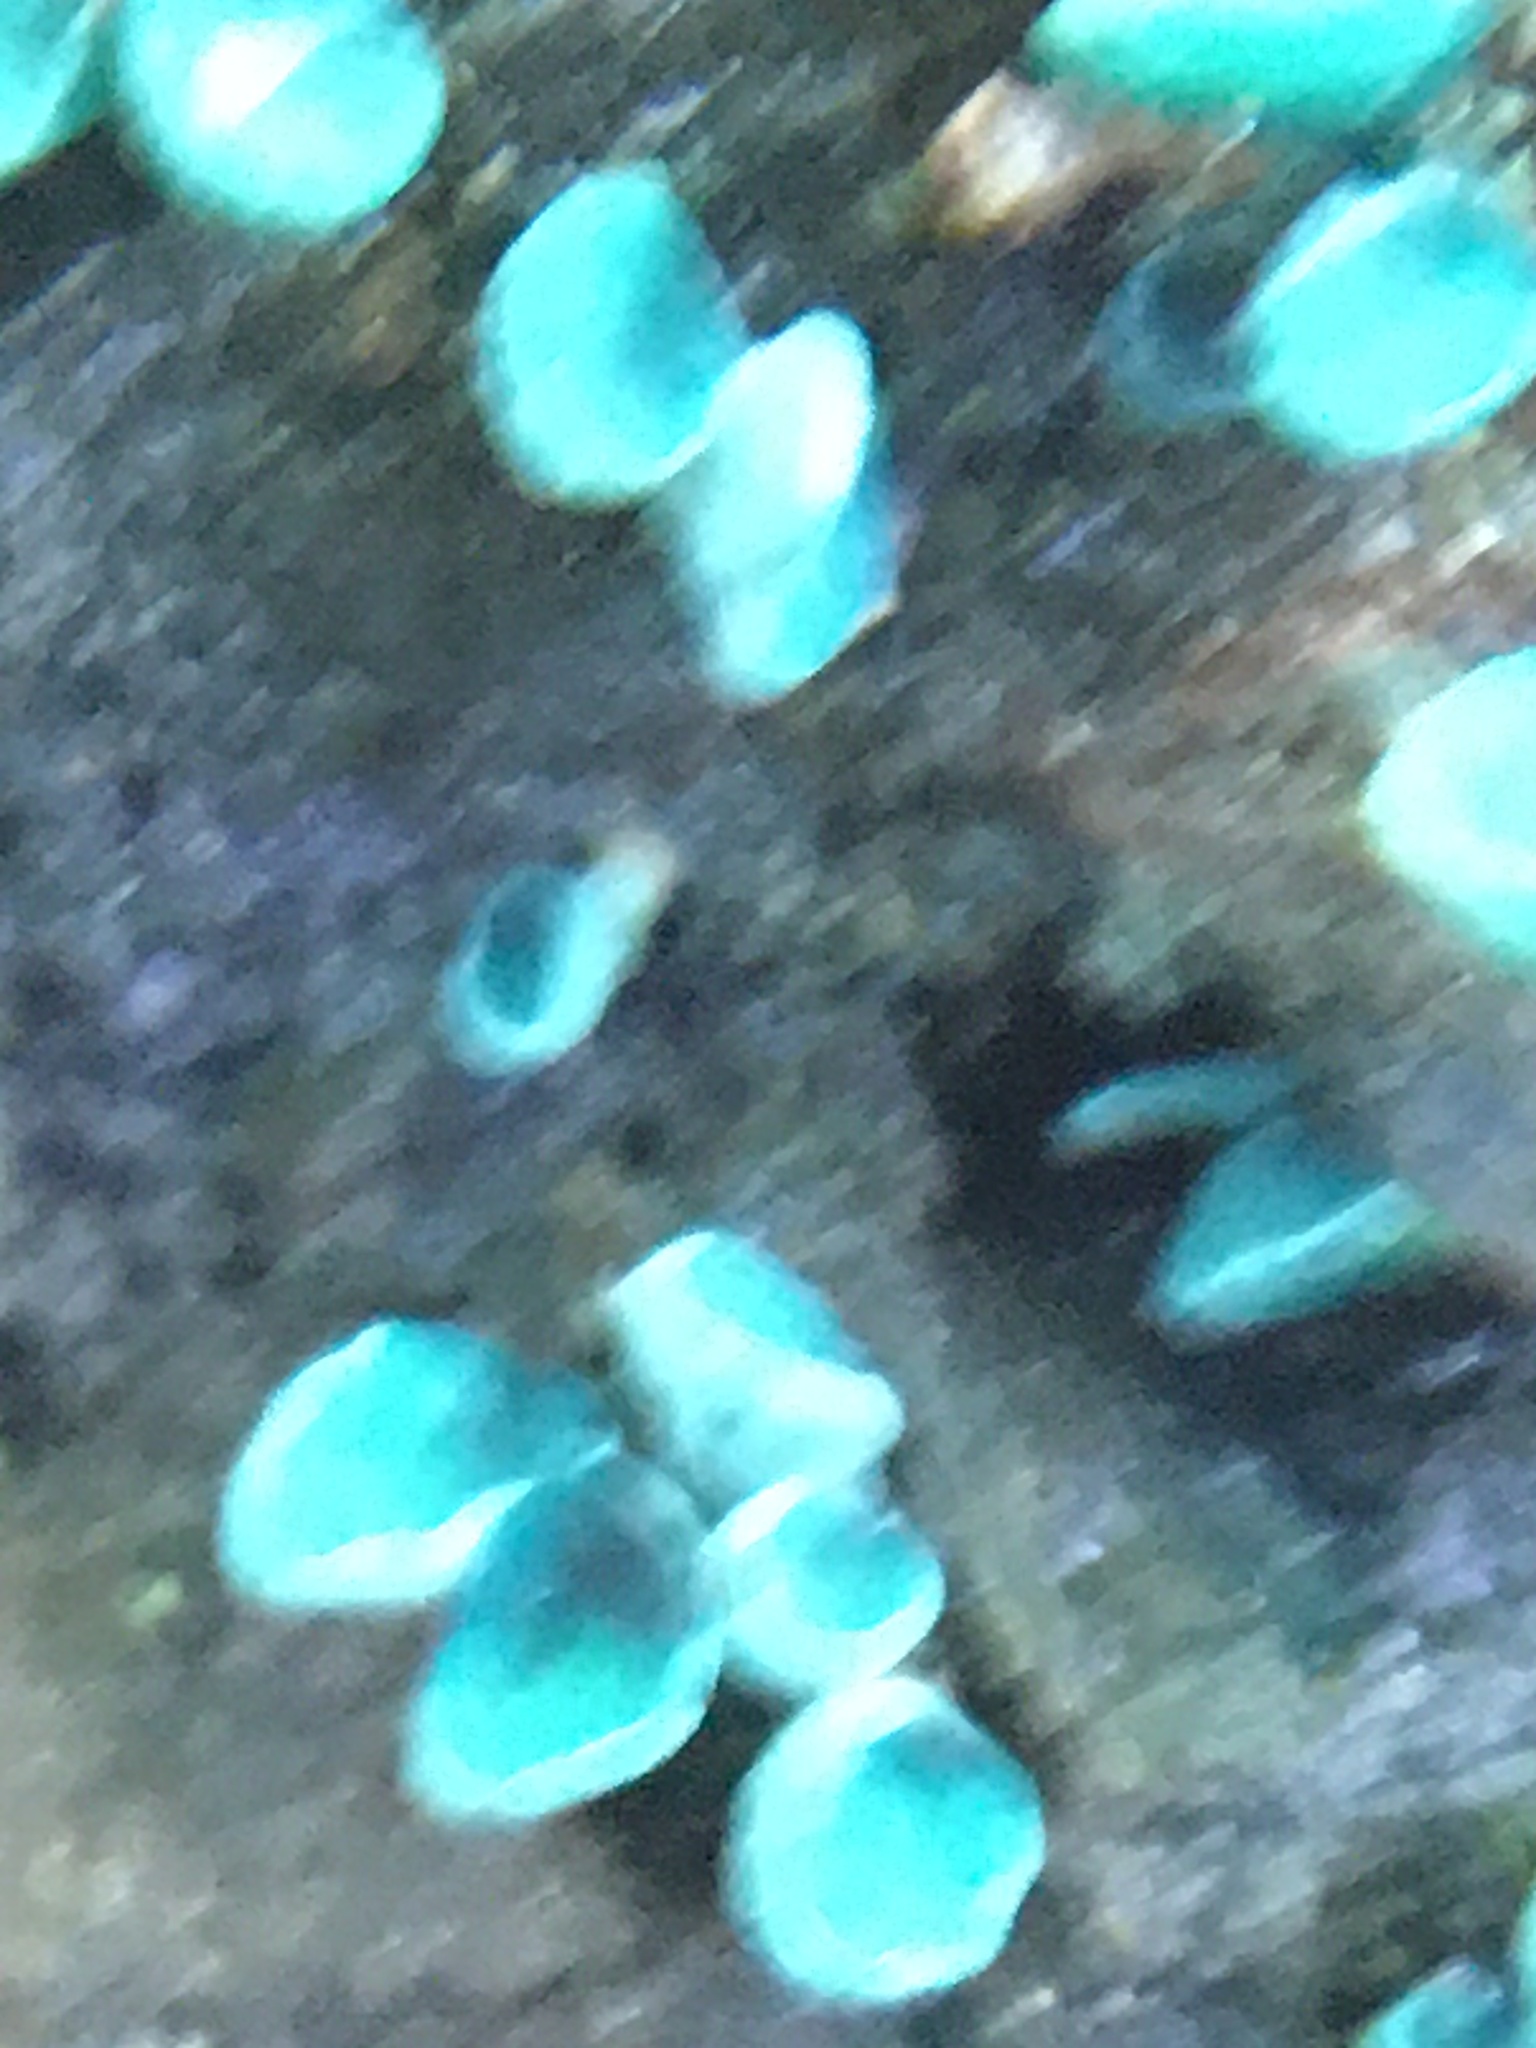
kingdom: Fungi
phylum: Ascomycota
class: Leotiomycetes
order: Helotiales
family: Chlorociboriaceae
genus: Chlorociboria
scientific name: Chlorociboria
